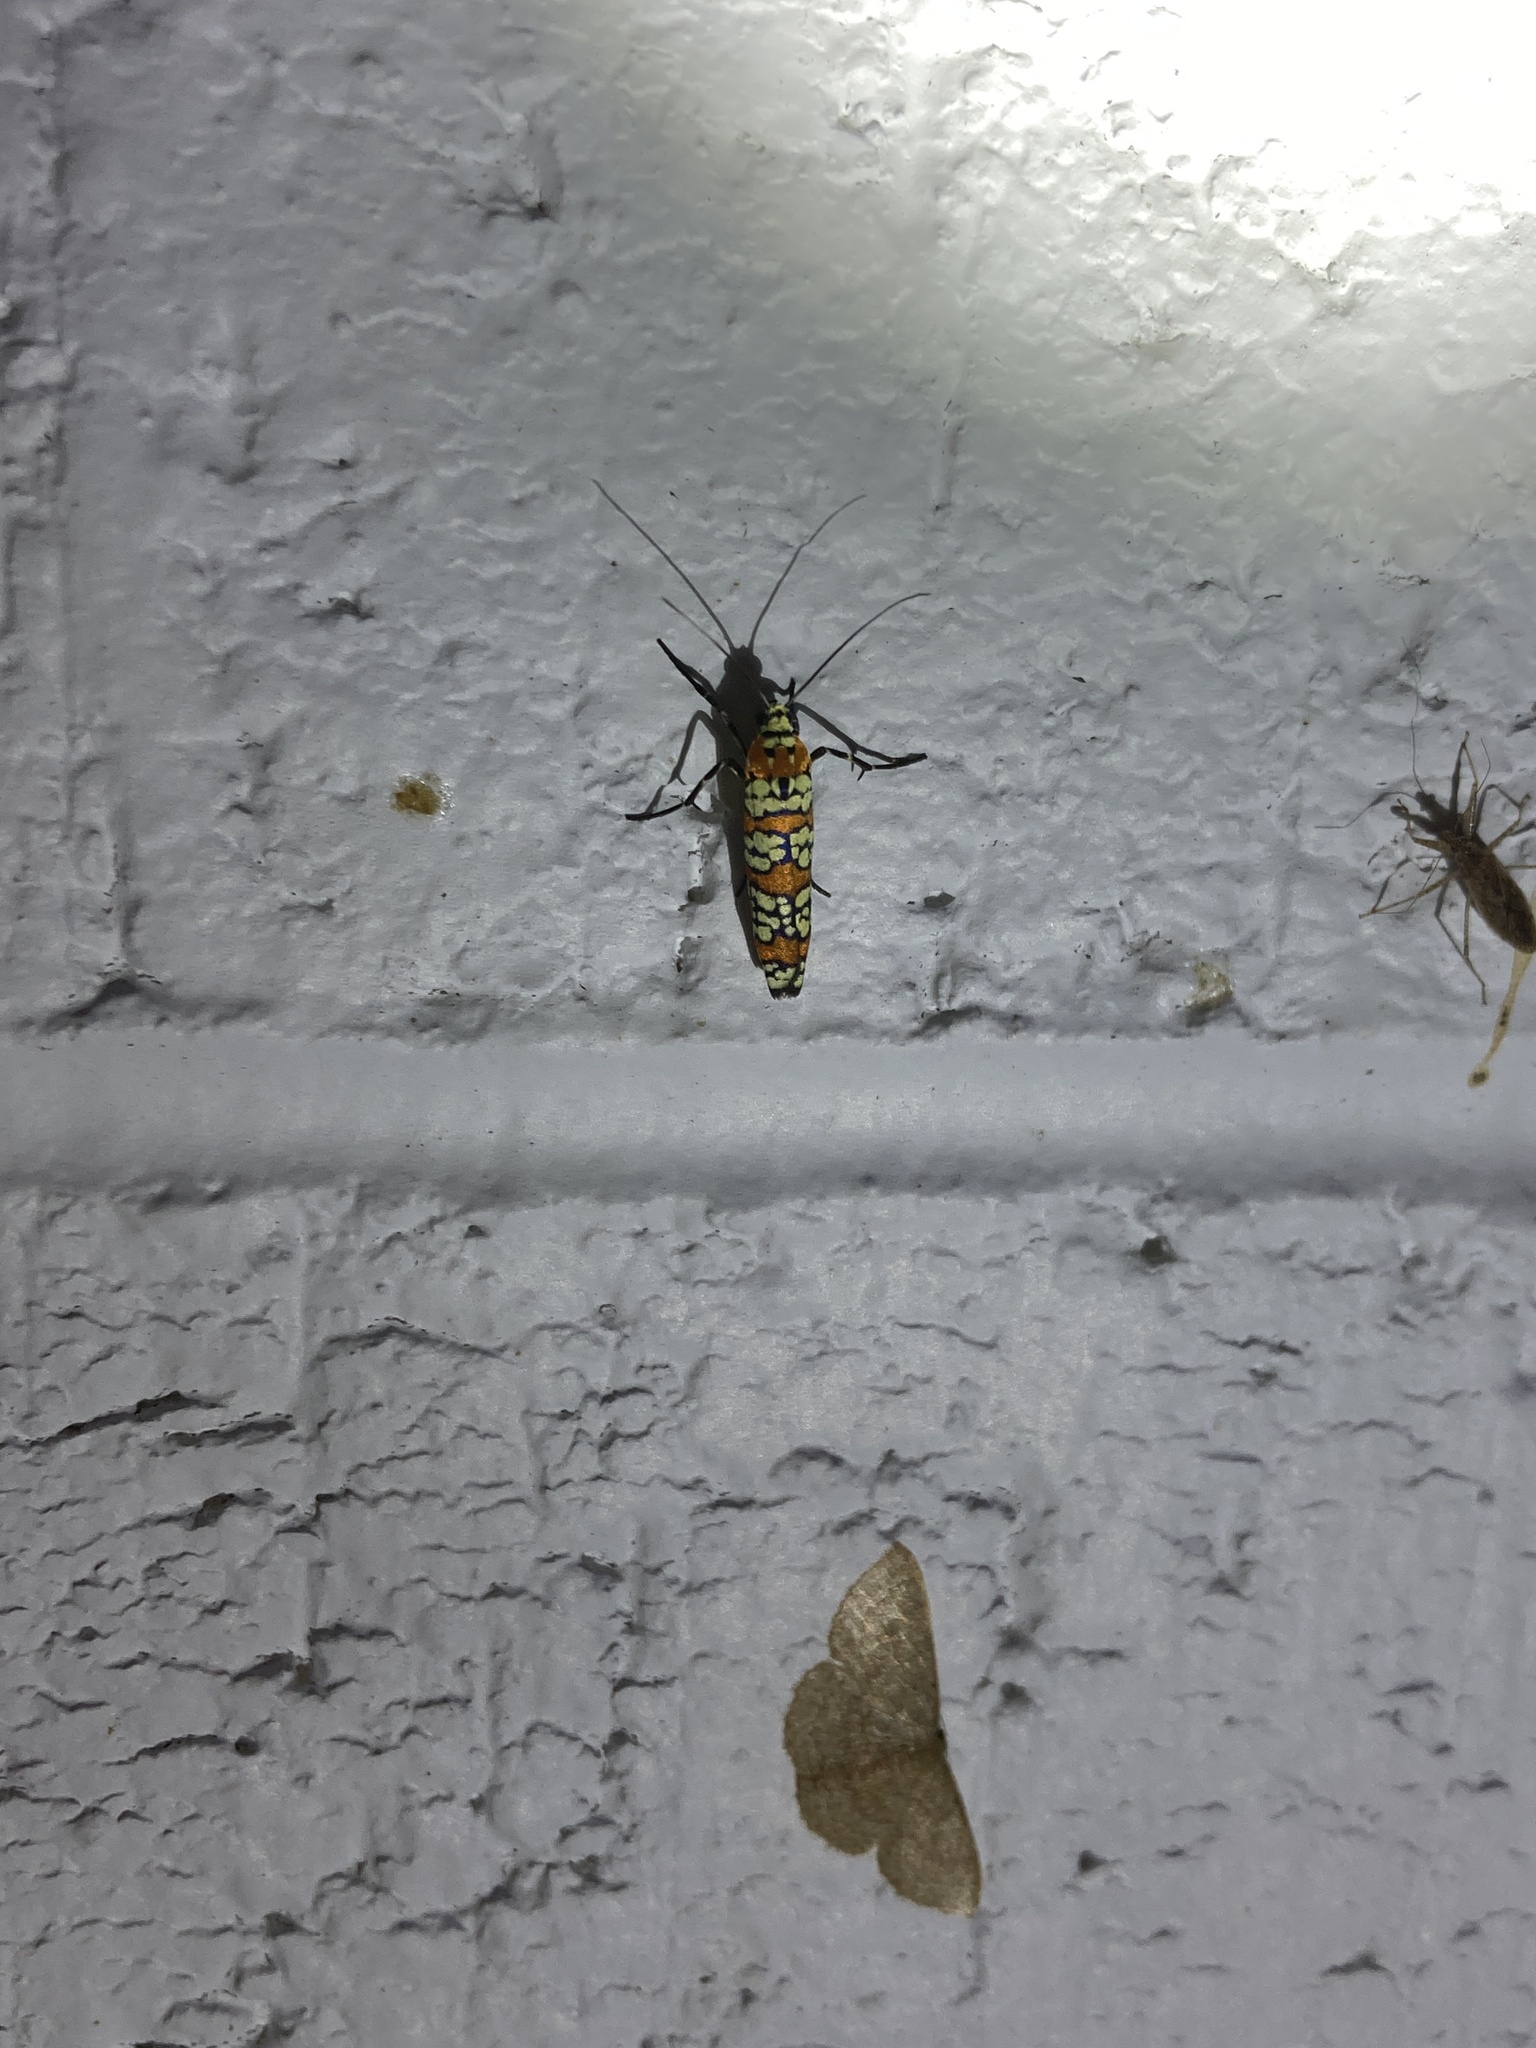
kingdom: Animalia
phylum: Arthropoda
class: Insecta
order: Lepidoptera
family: Attevidae
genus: Atteva
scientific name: Atteva punctella
